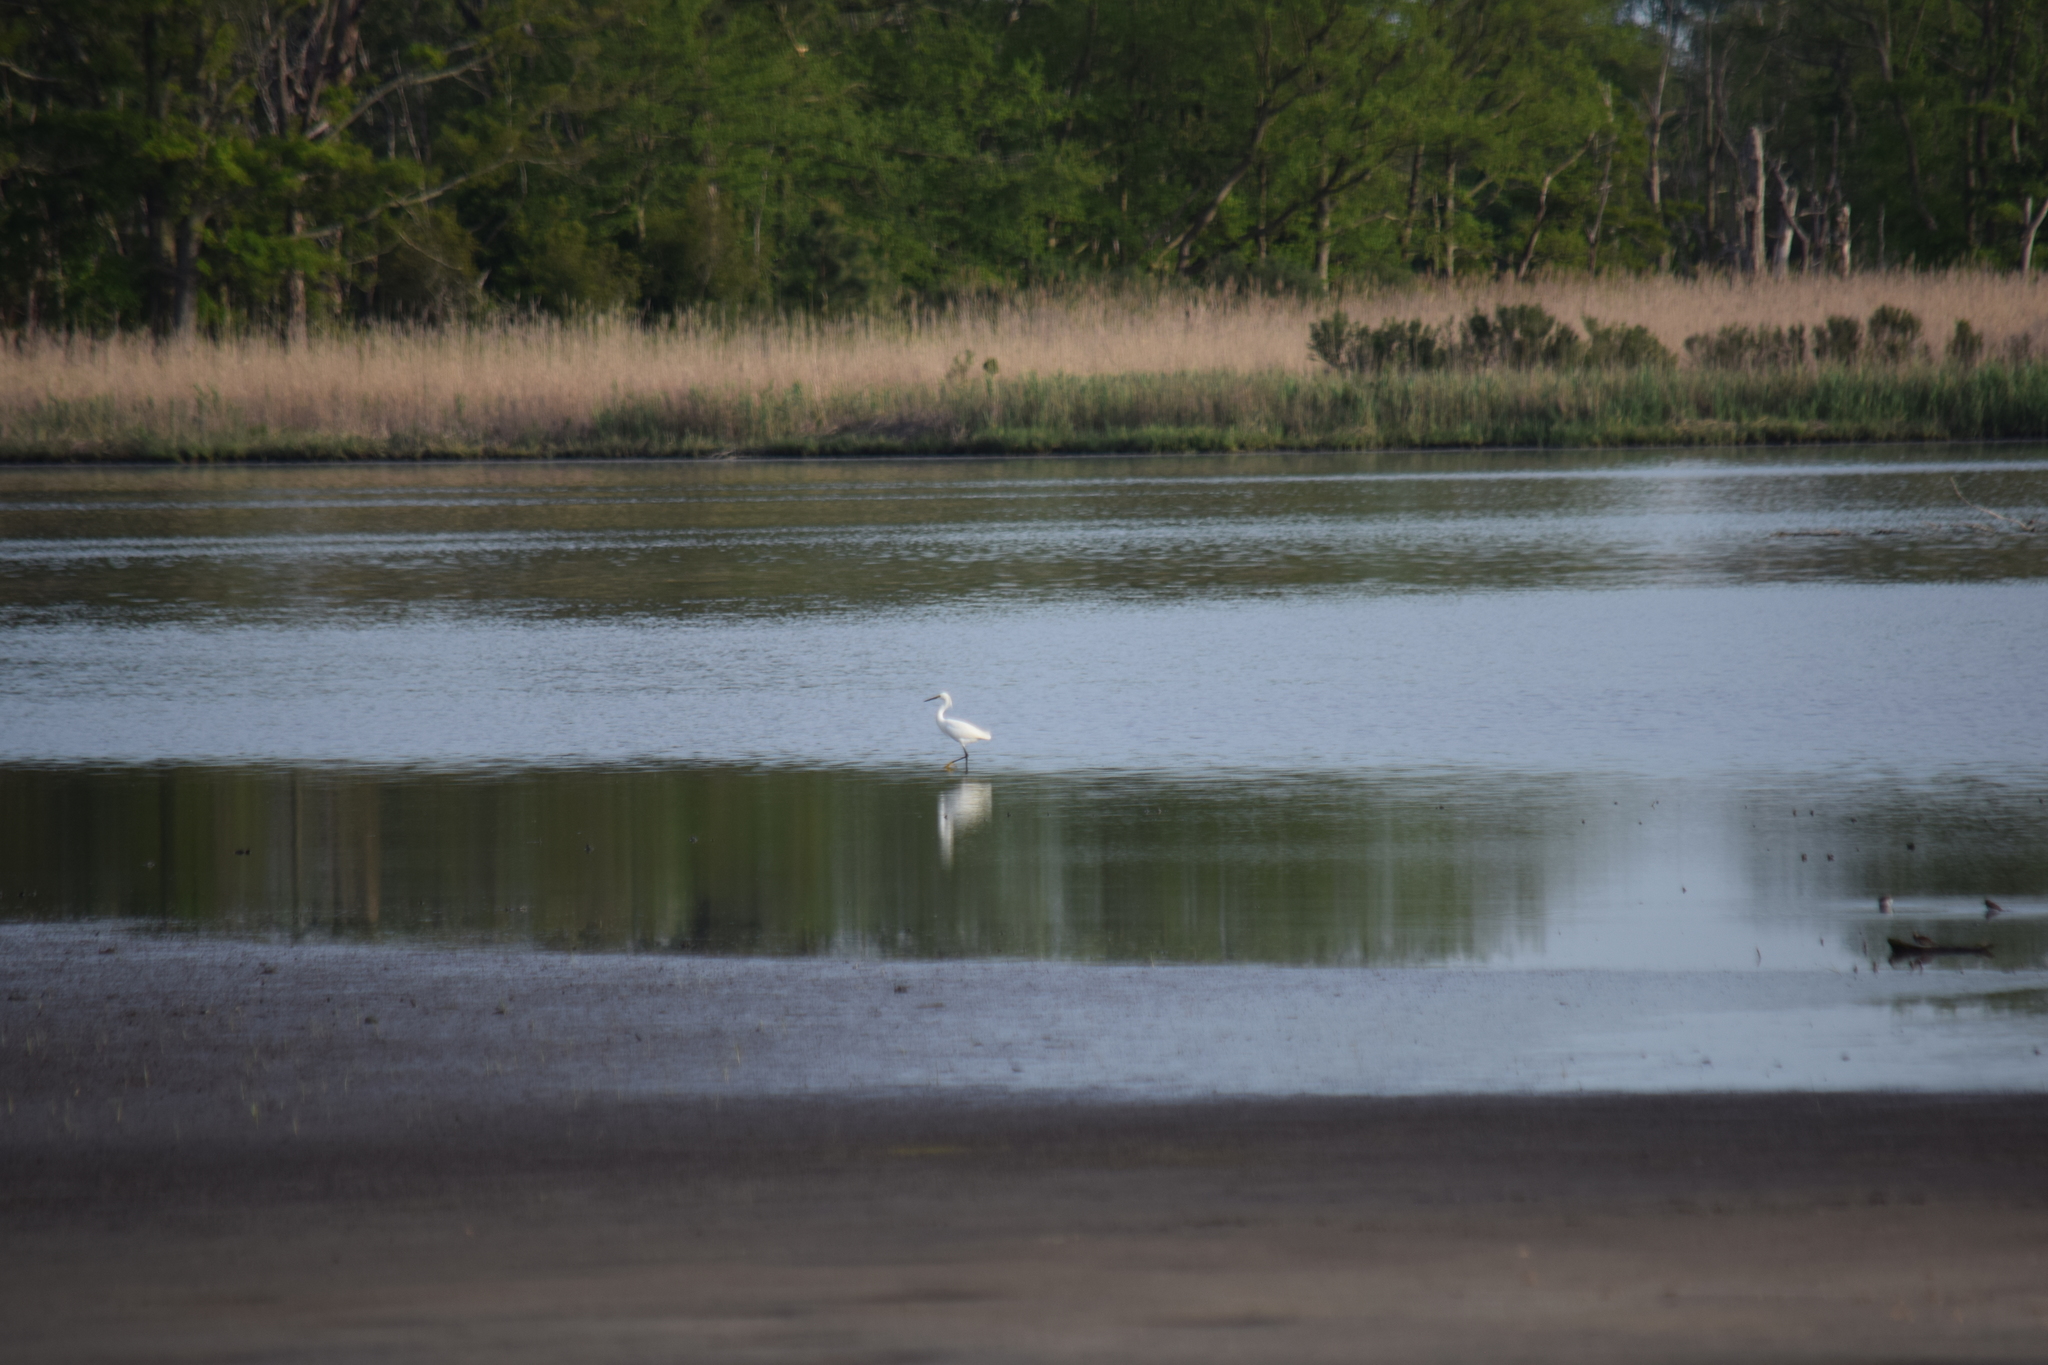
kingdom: Animalia
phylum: Chordata
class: Aves
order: Pelecaniformes
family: Ardeidae
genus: Egretta
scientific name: Egretta thula
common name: Snowy egret
